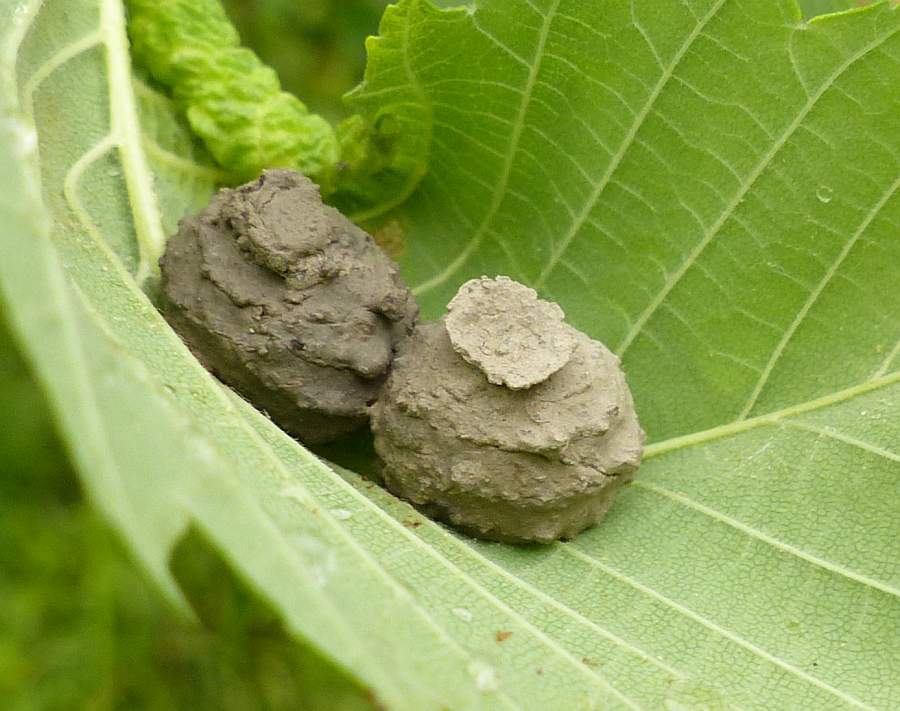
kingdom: Animalia
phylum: Arthropoda
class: Insecta
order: Hymenoptera
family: Vespidae
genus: Eumenes
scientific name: Eumenes
